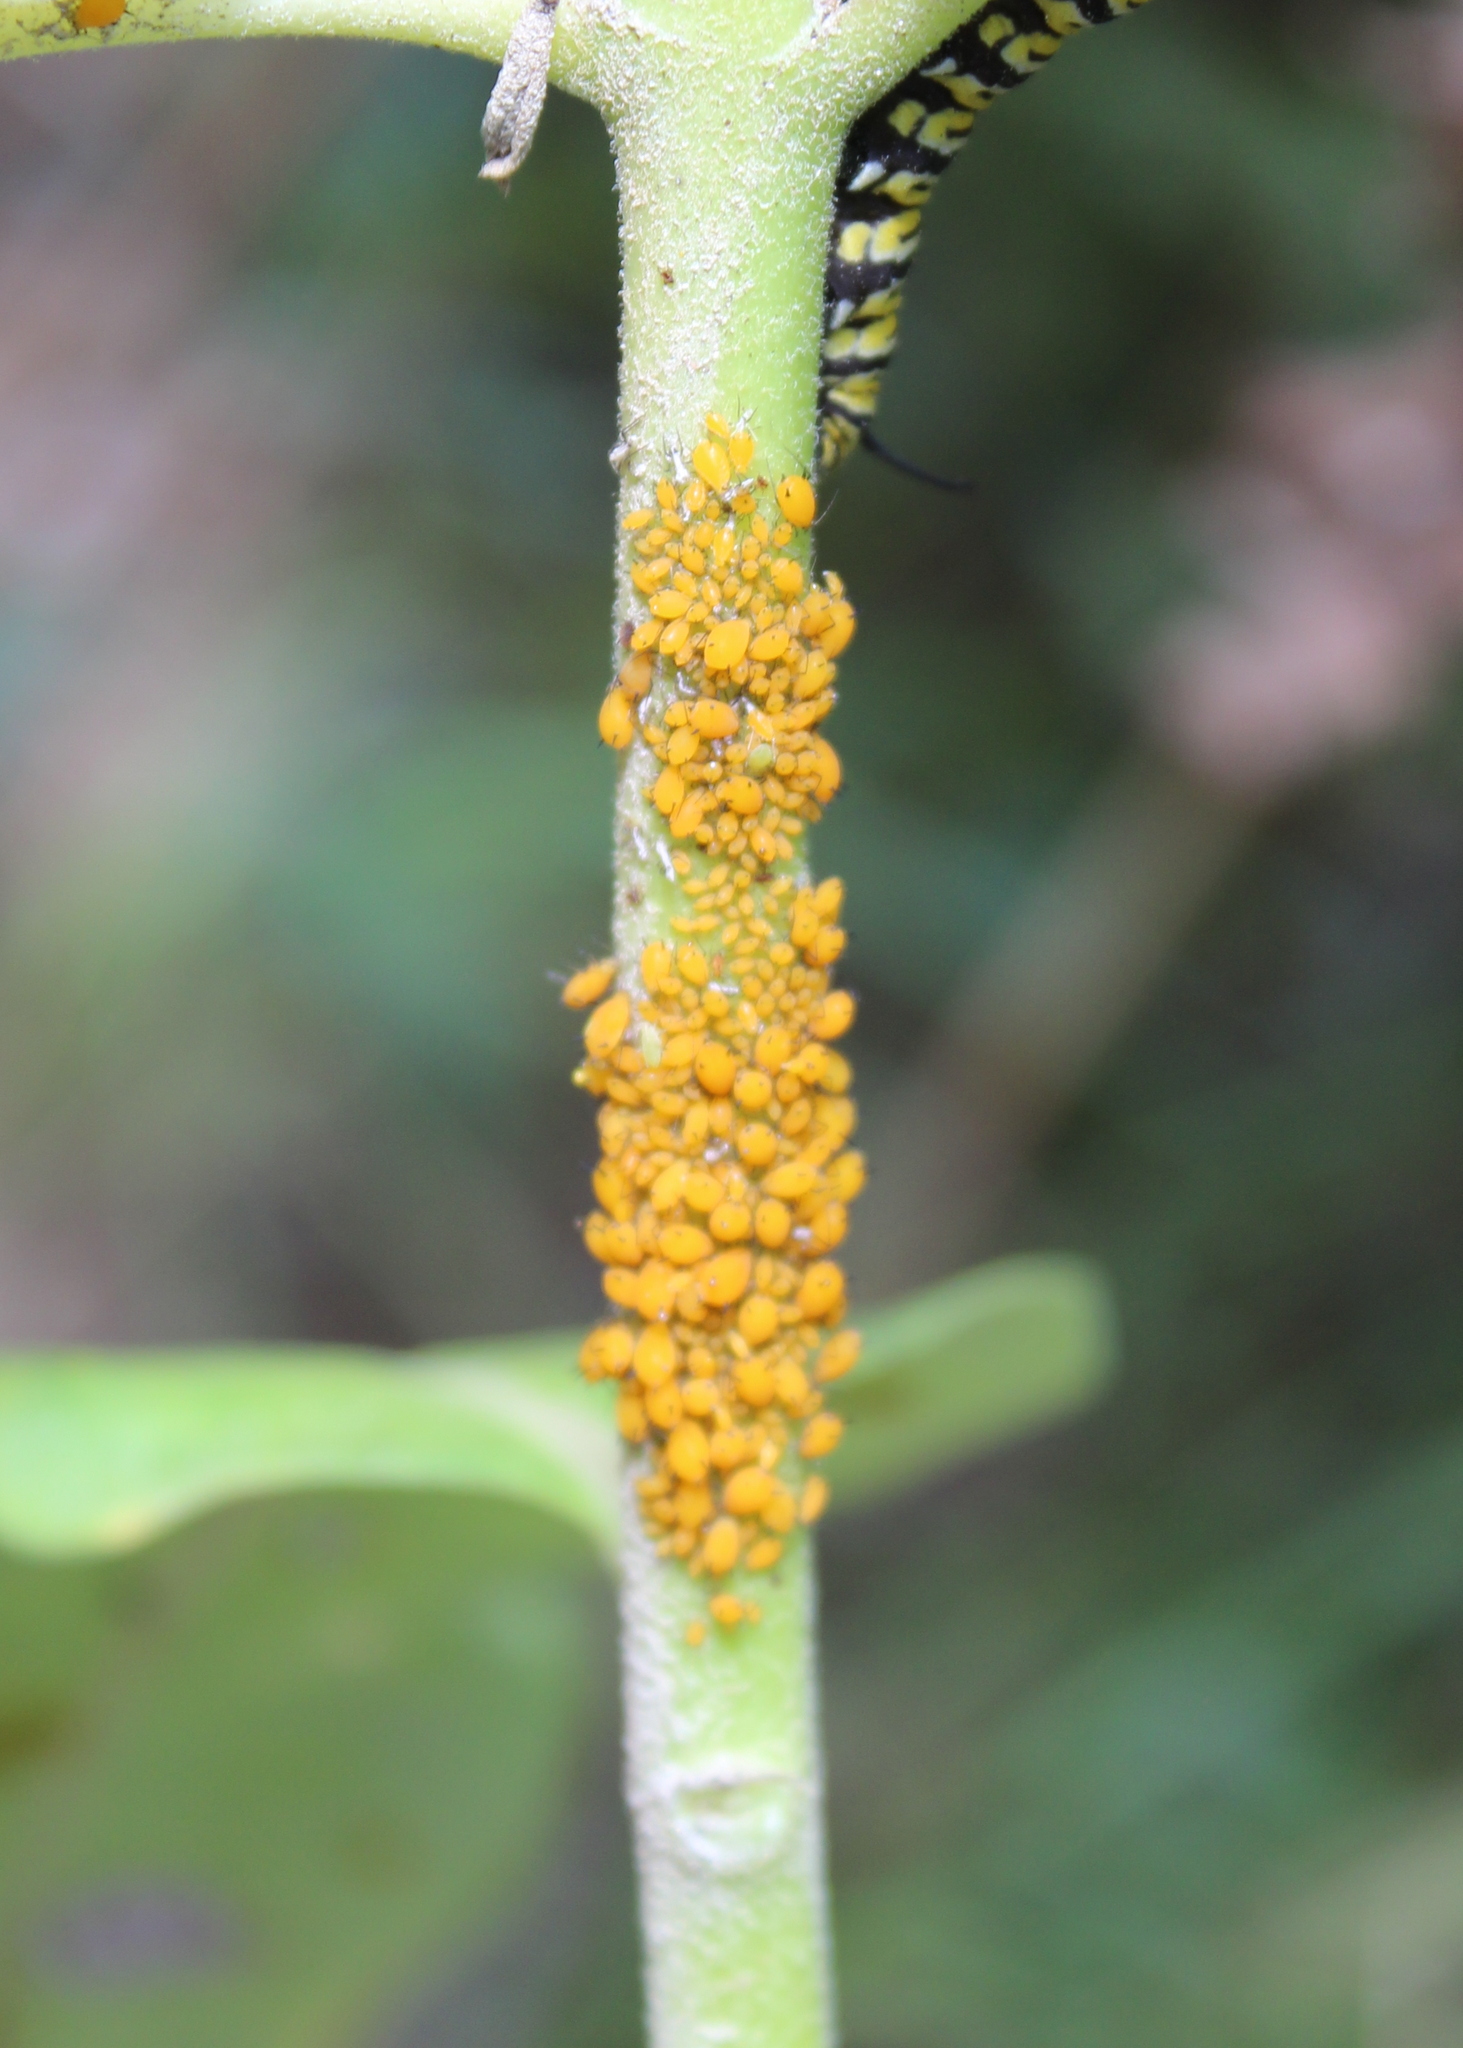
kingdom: Animalia
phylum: Arthropoda
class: Insecta
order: Hemiptera
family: Aphididae
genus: Aphis
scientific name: Aphis nerii
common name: Oleander aphid
